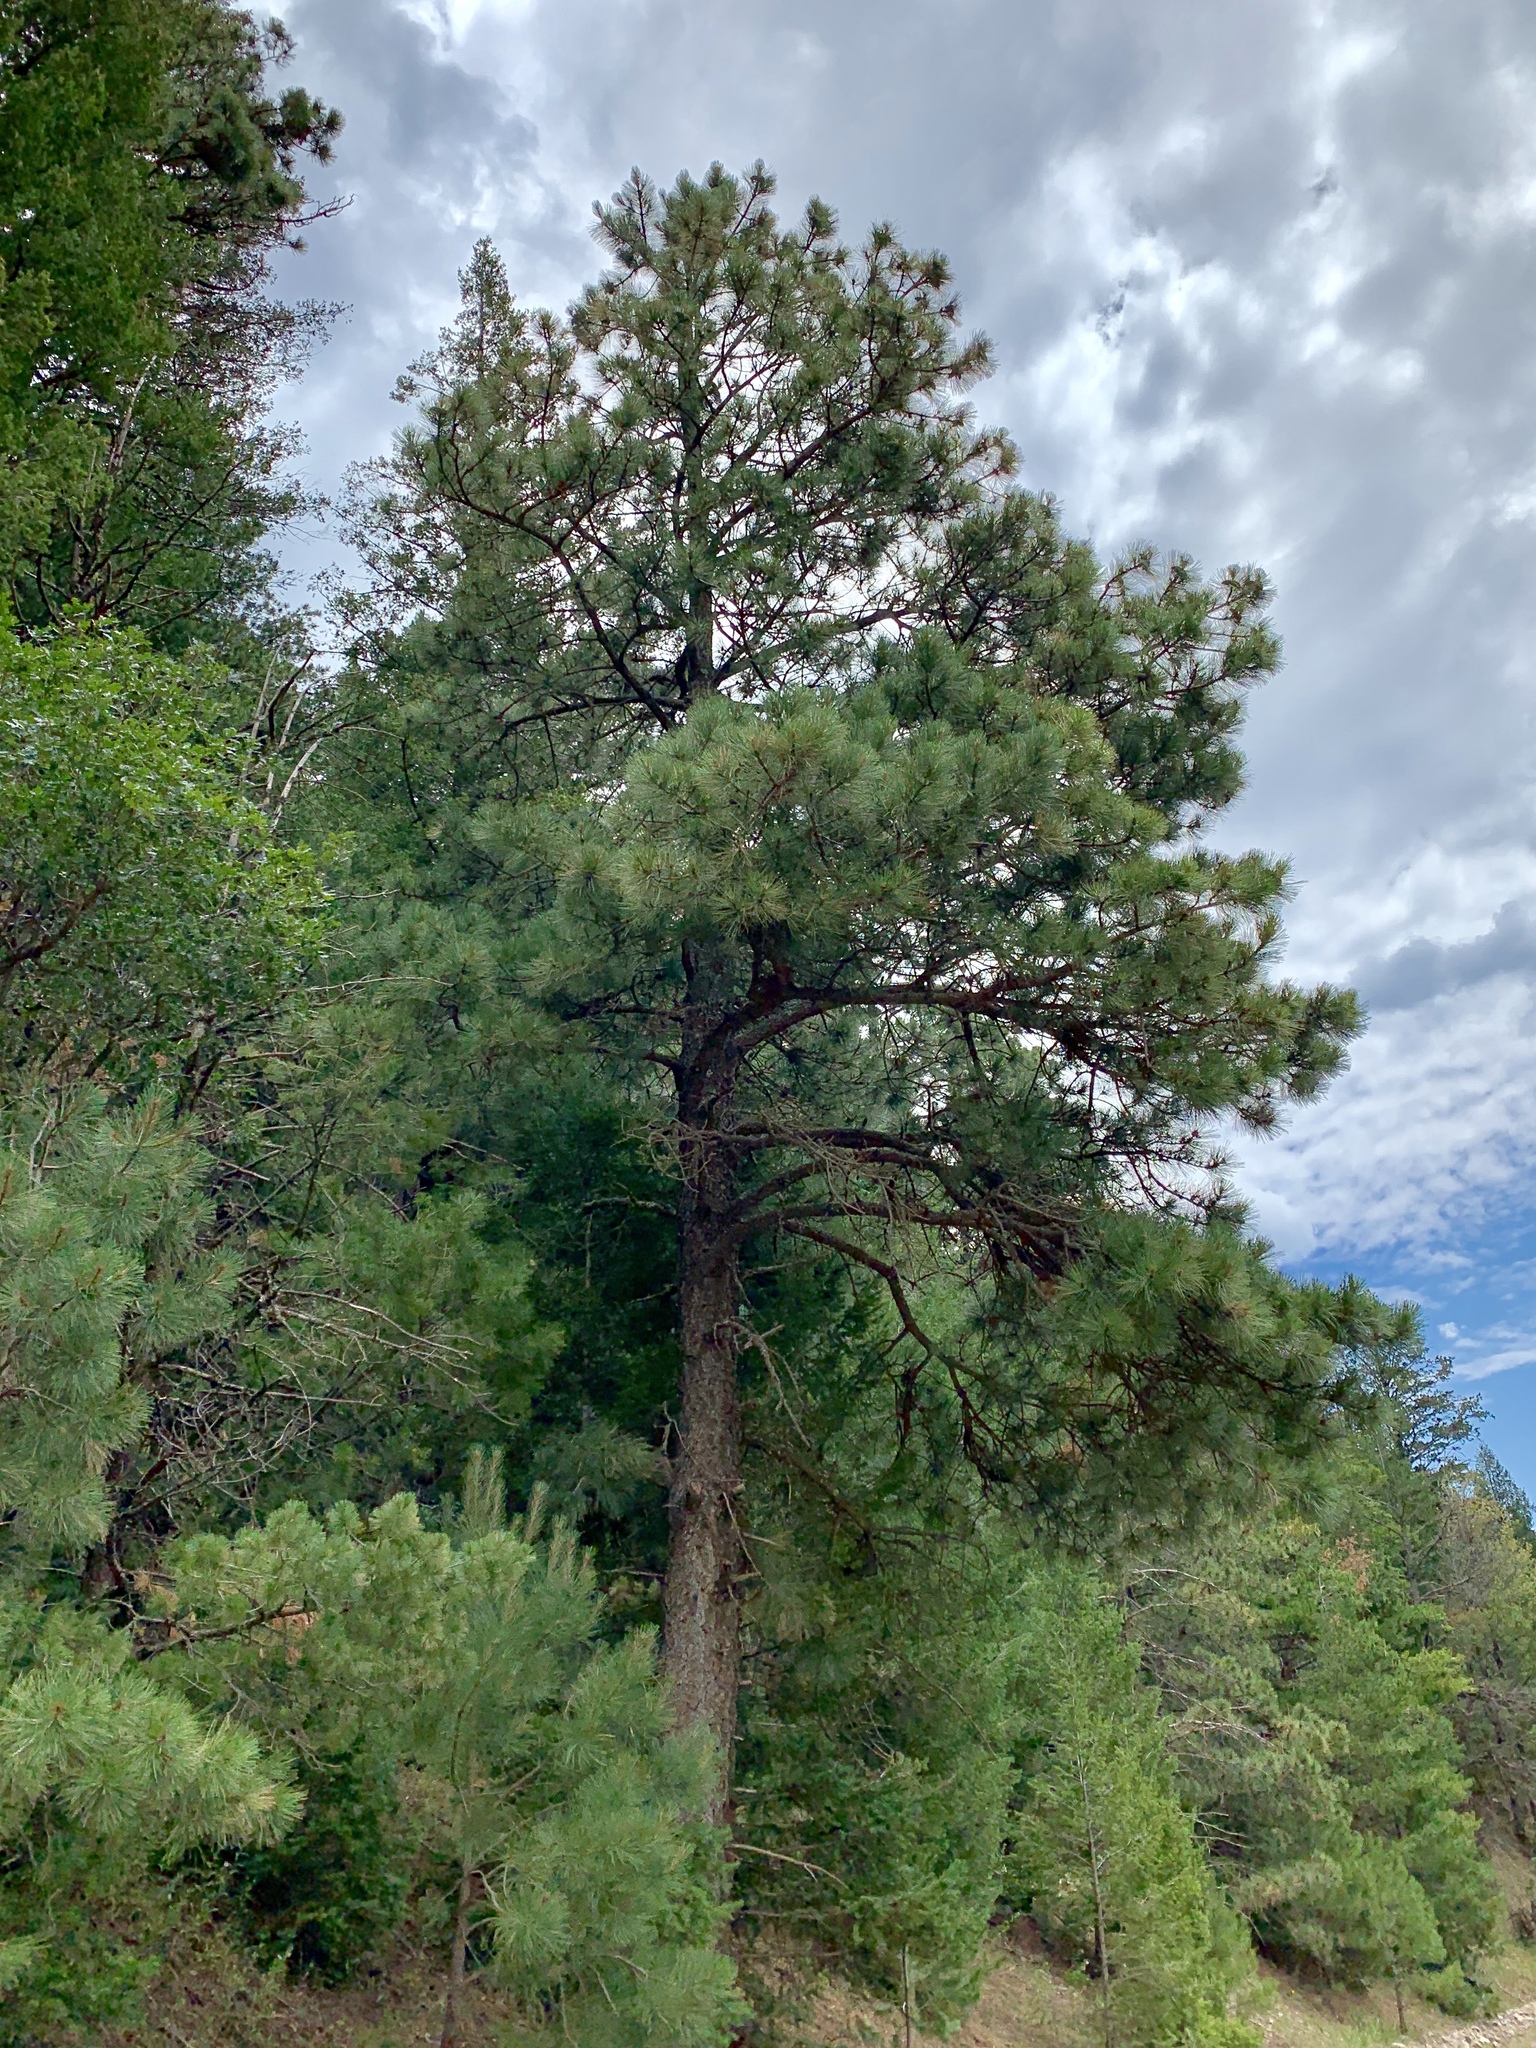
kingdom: Plantae
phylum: Tracheophyta
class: Pinopsida
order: Pinales
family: Pinaceae
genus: Pinus
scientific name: Pinus ponderosa
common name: Western yellow-pine
